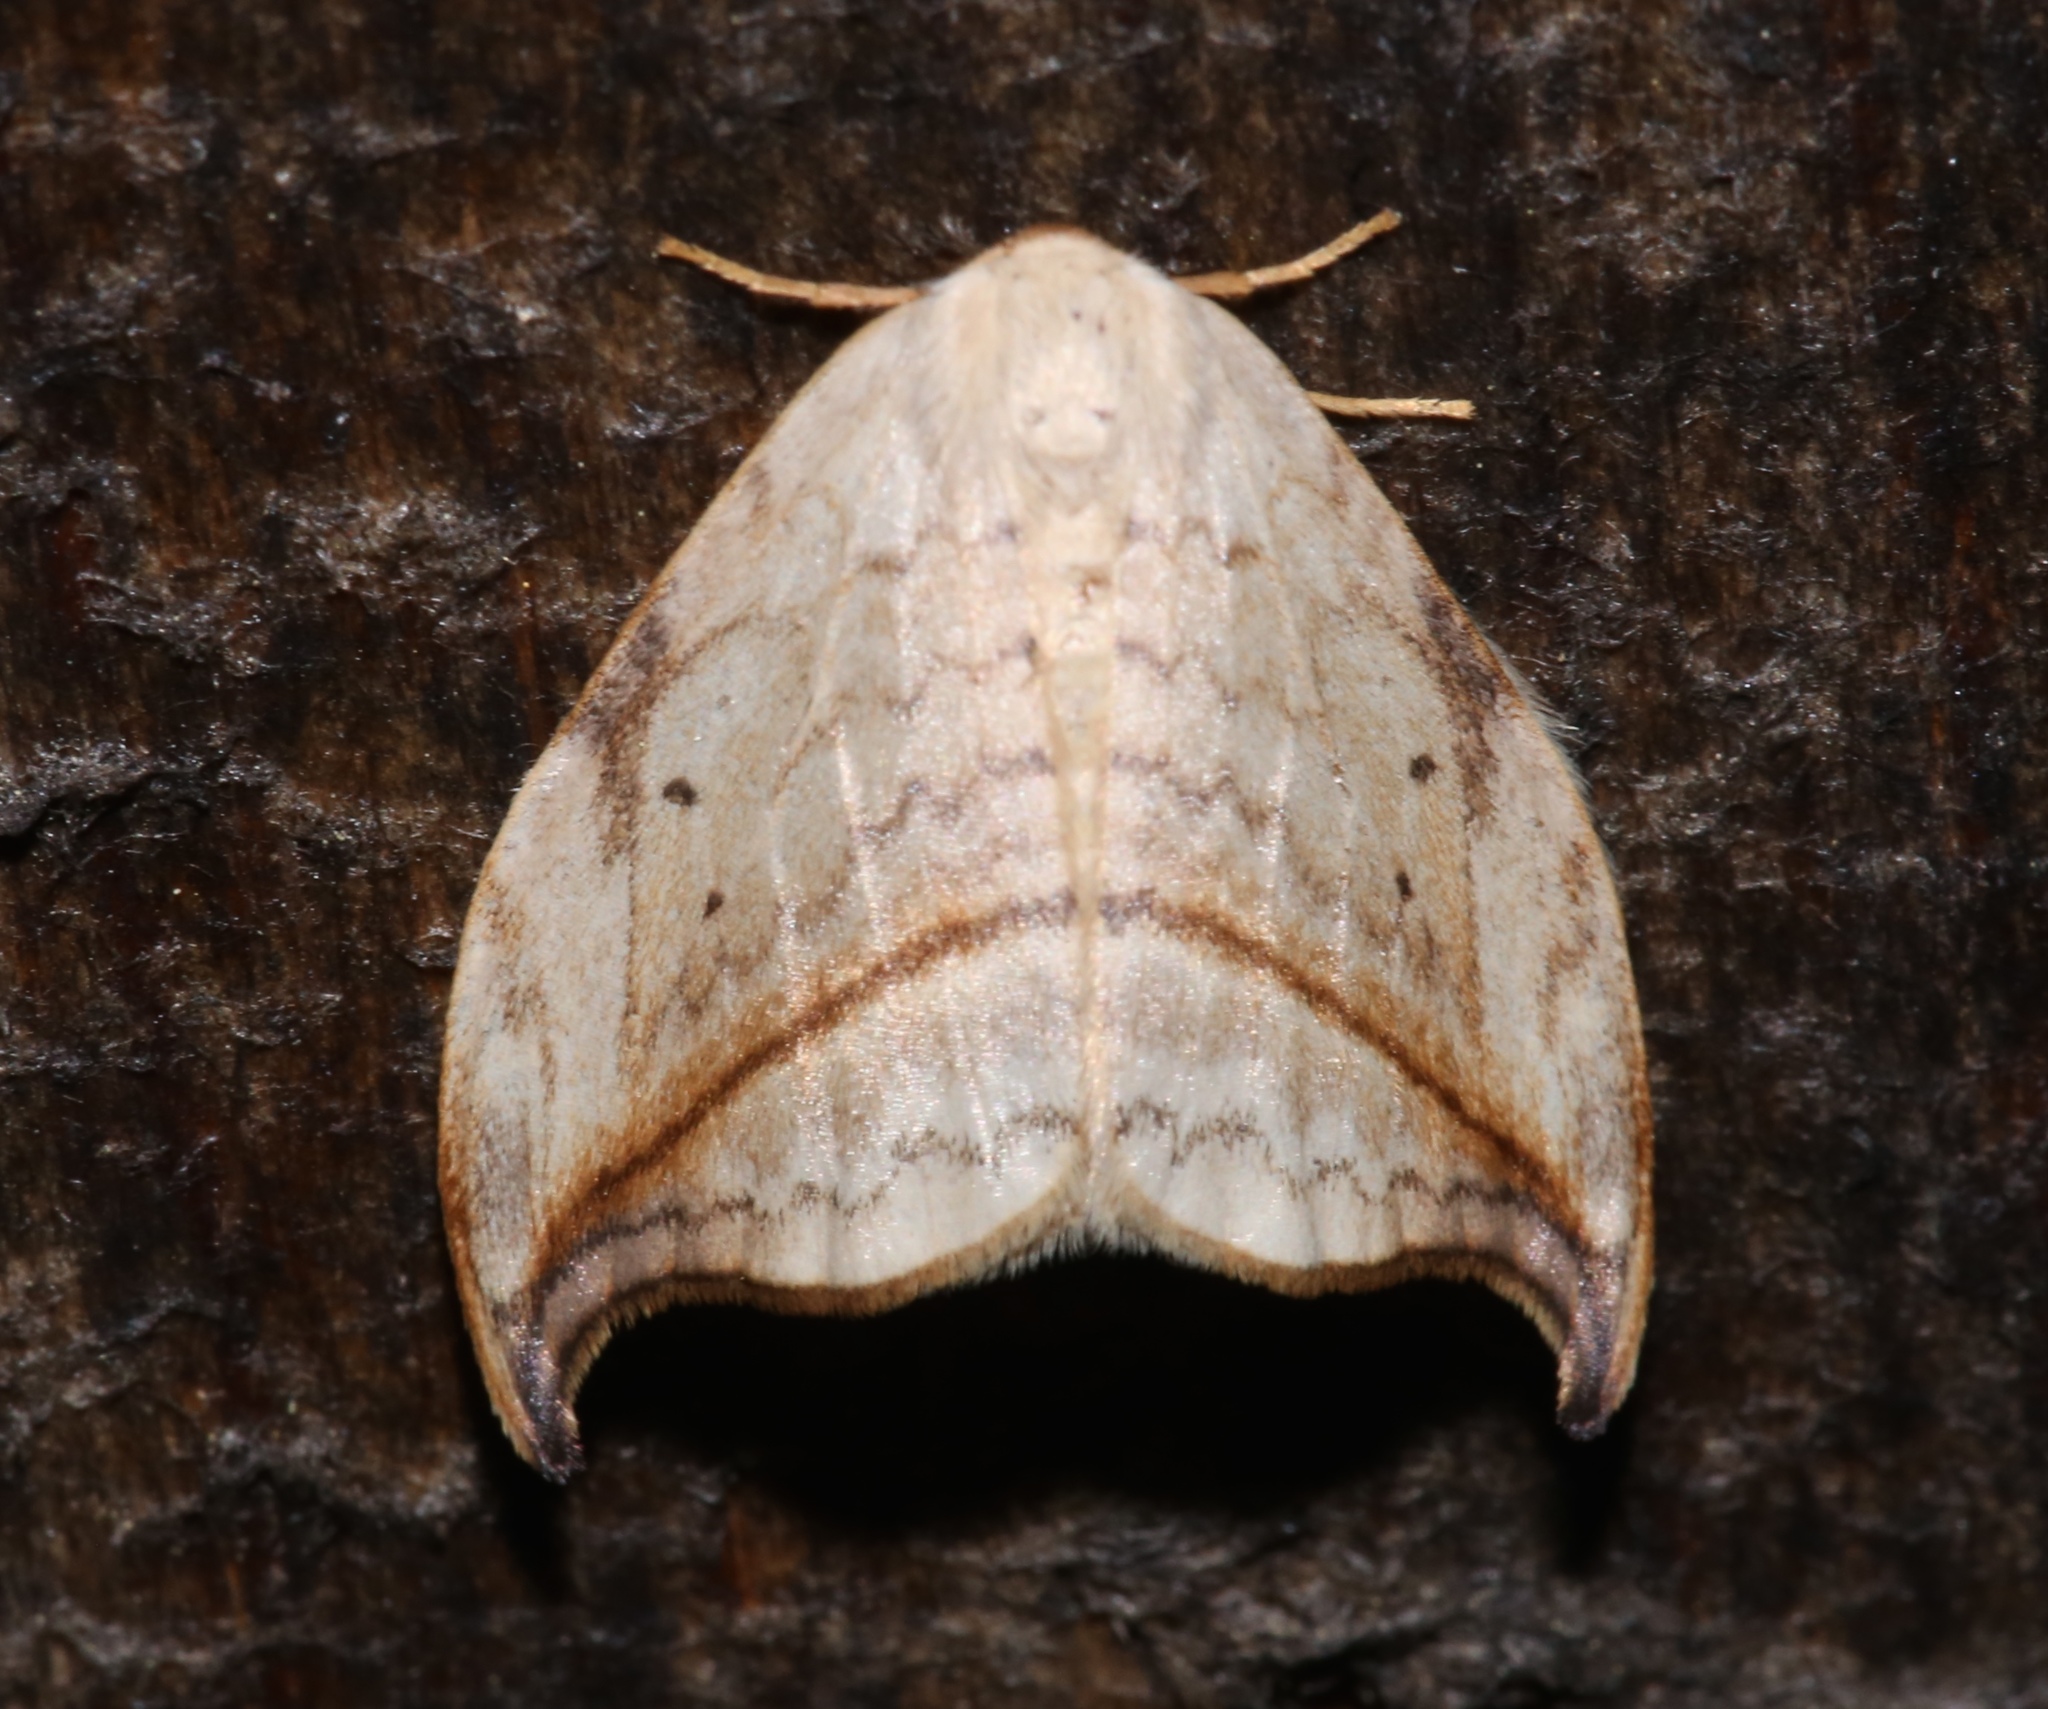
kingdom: Animalia
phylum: Arthropoda
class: Insecta
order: Lepidoptera
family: Drepanidae
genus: Drepana
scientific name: Drepana arcuata
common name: Arched hooktip moth
